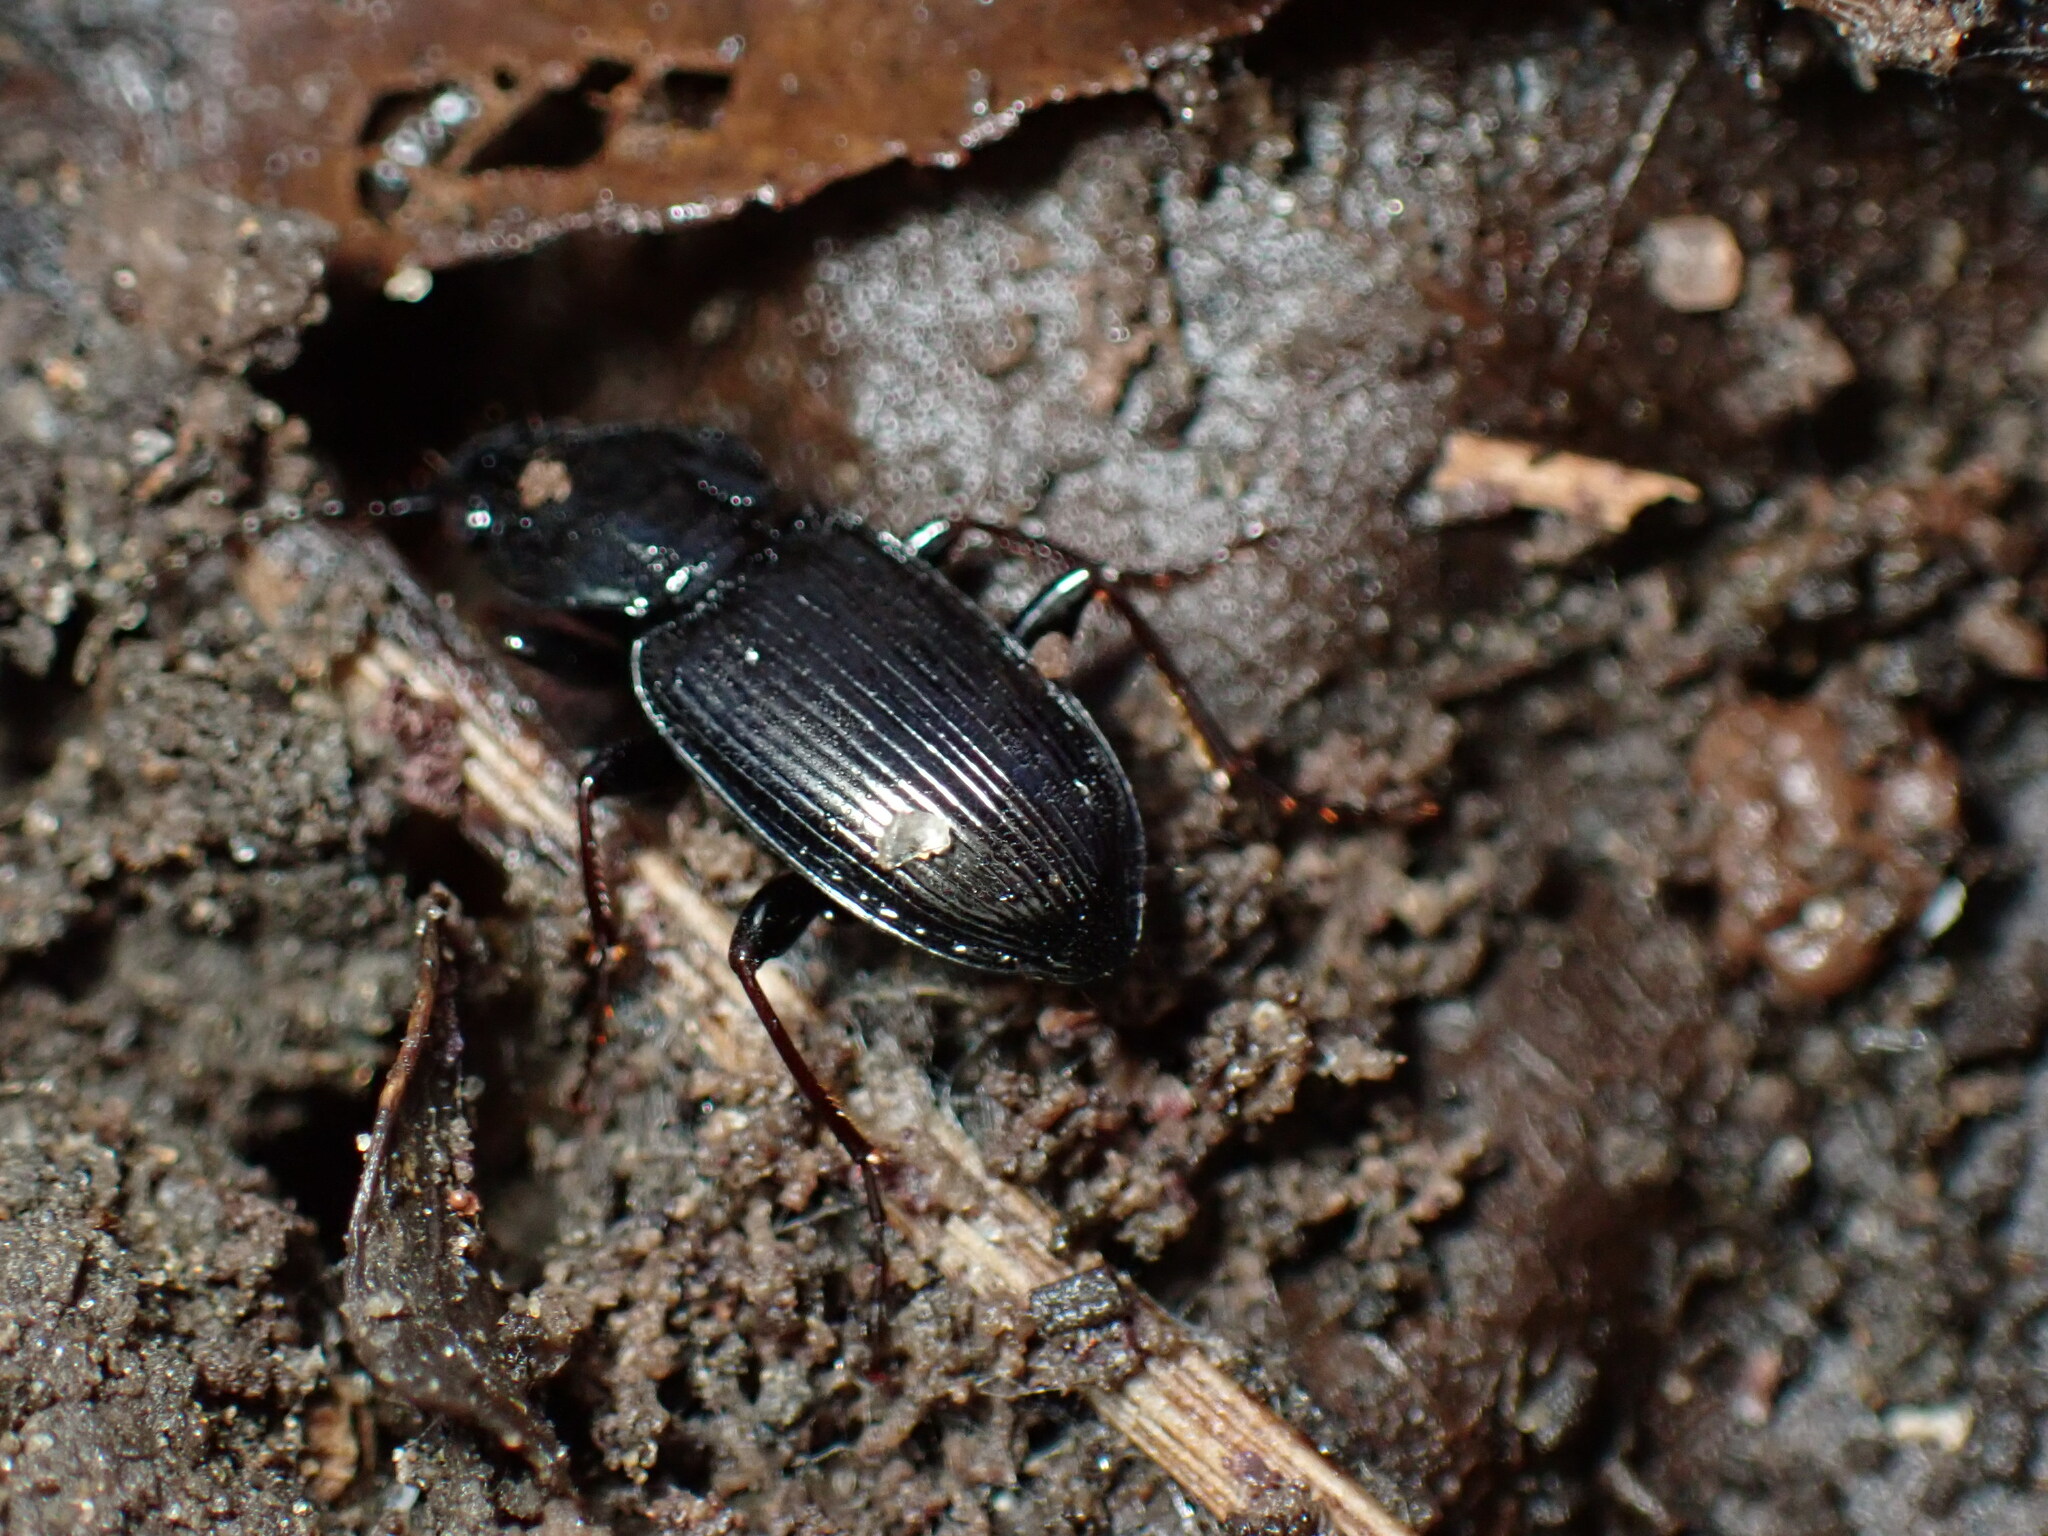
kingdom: Animalia
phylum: Arthropoda
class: Insecta
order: Coleoptera
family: Carabidae
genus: Pterostichus
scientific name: Pterostichus mutus
